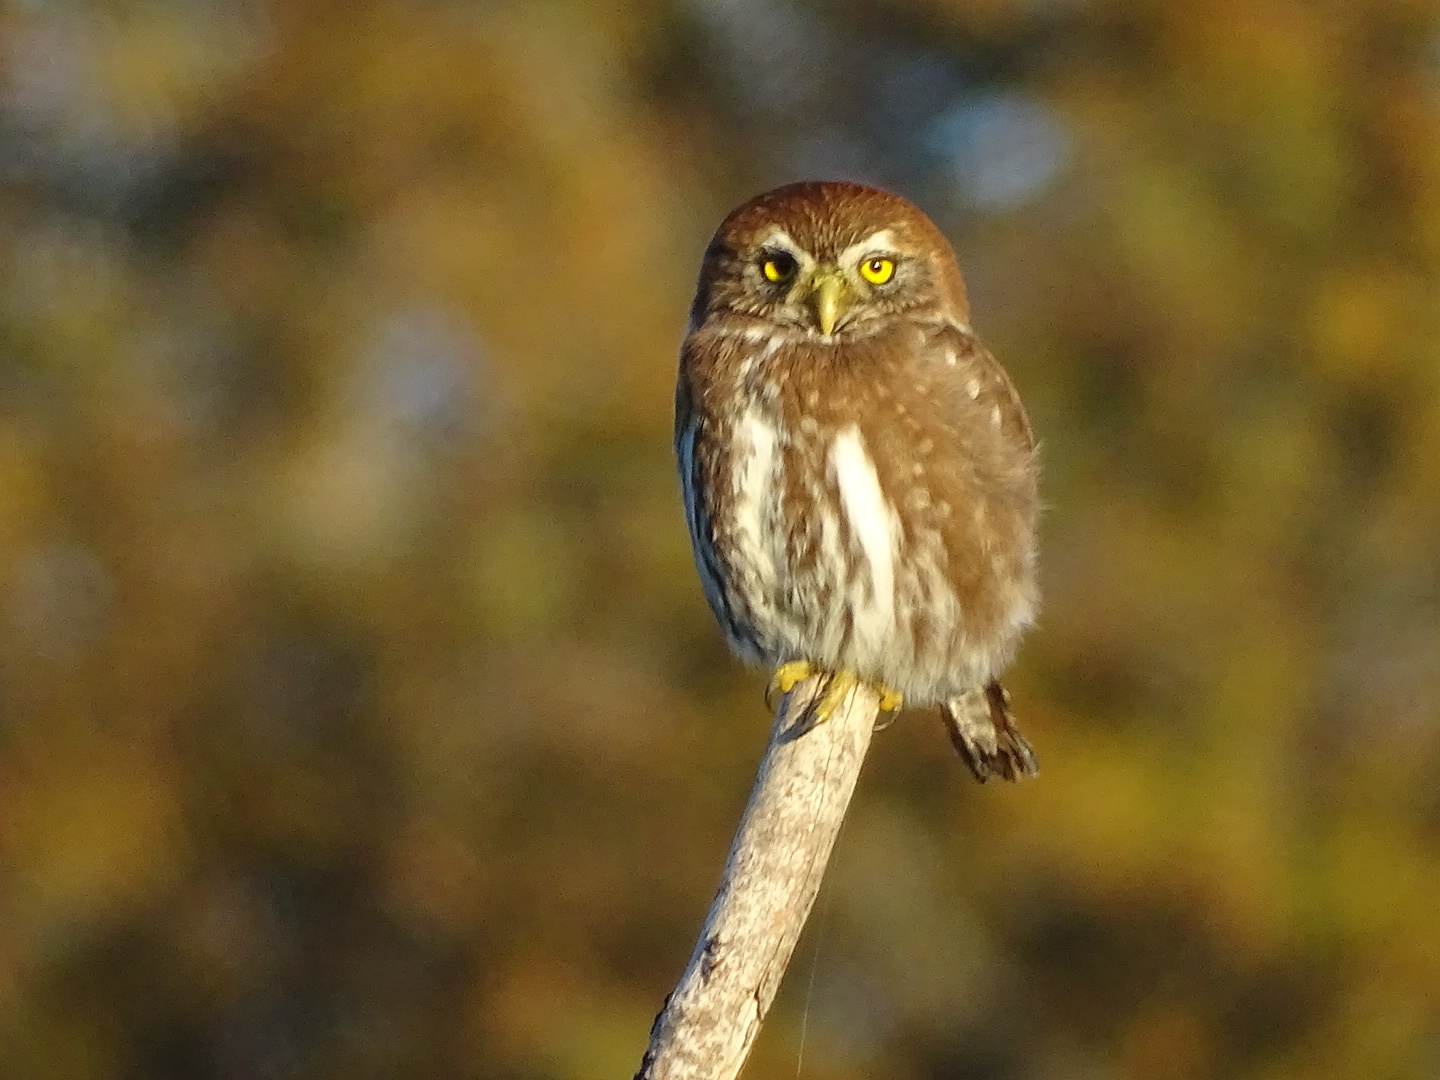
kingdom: Animalia
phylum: Chordata
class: Aves
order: Strigiformes
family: Strigidae
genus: Glaucidium
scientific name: Glaucidium nana
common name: Austral pygmy-owl
